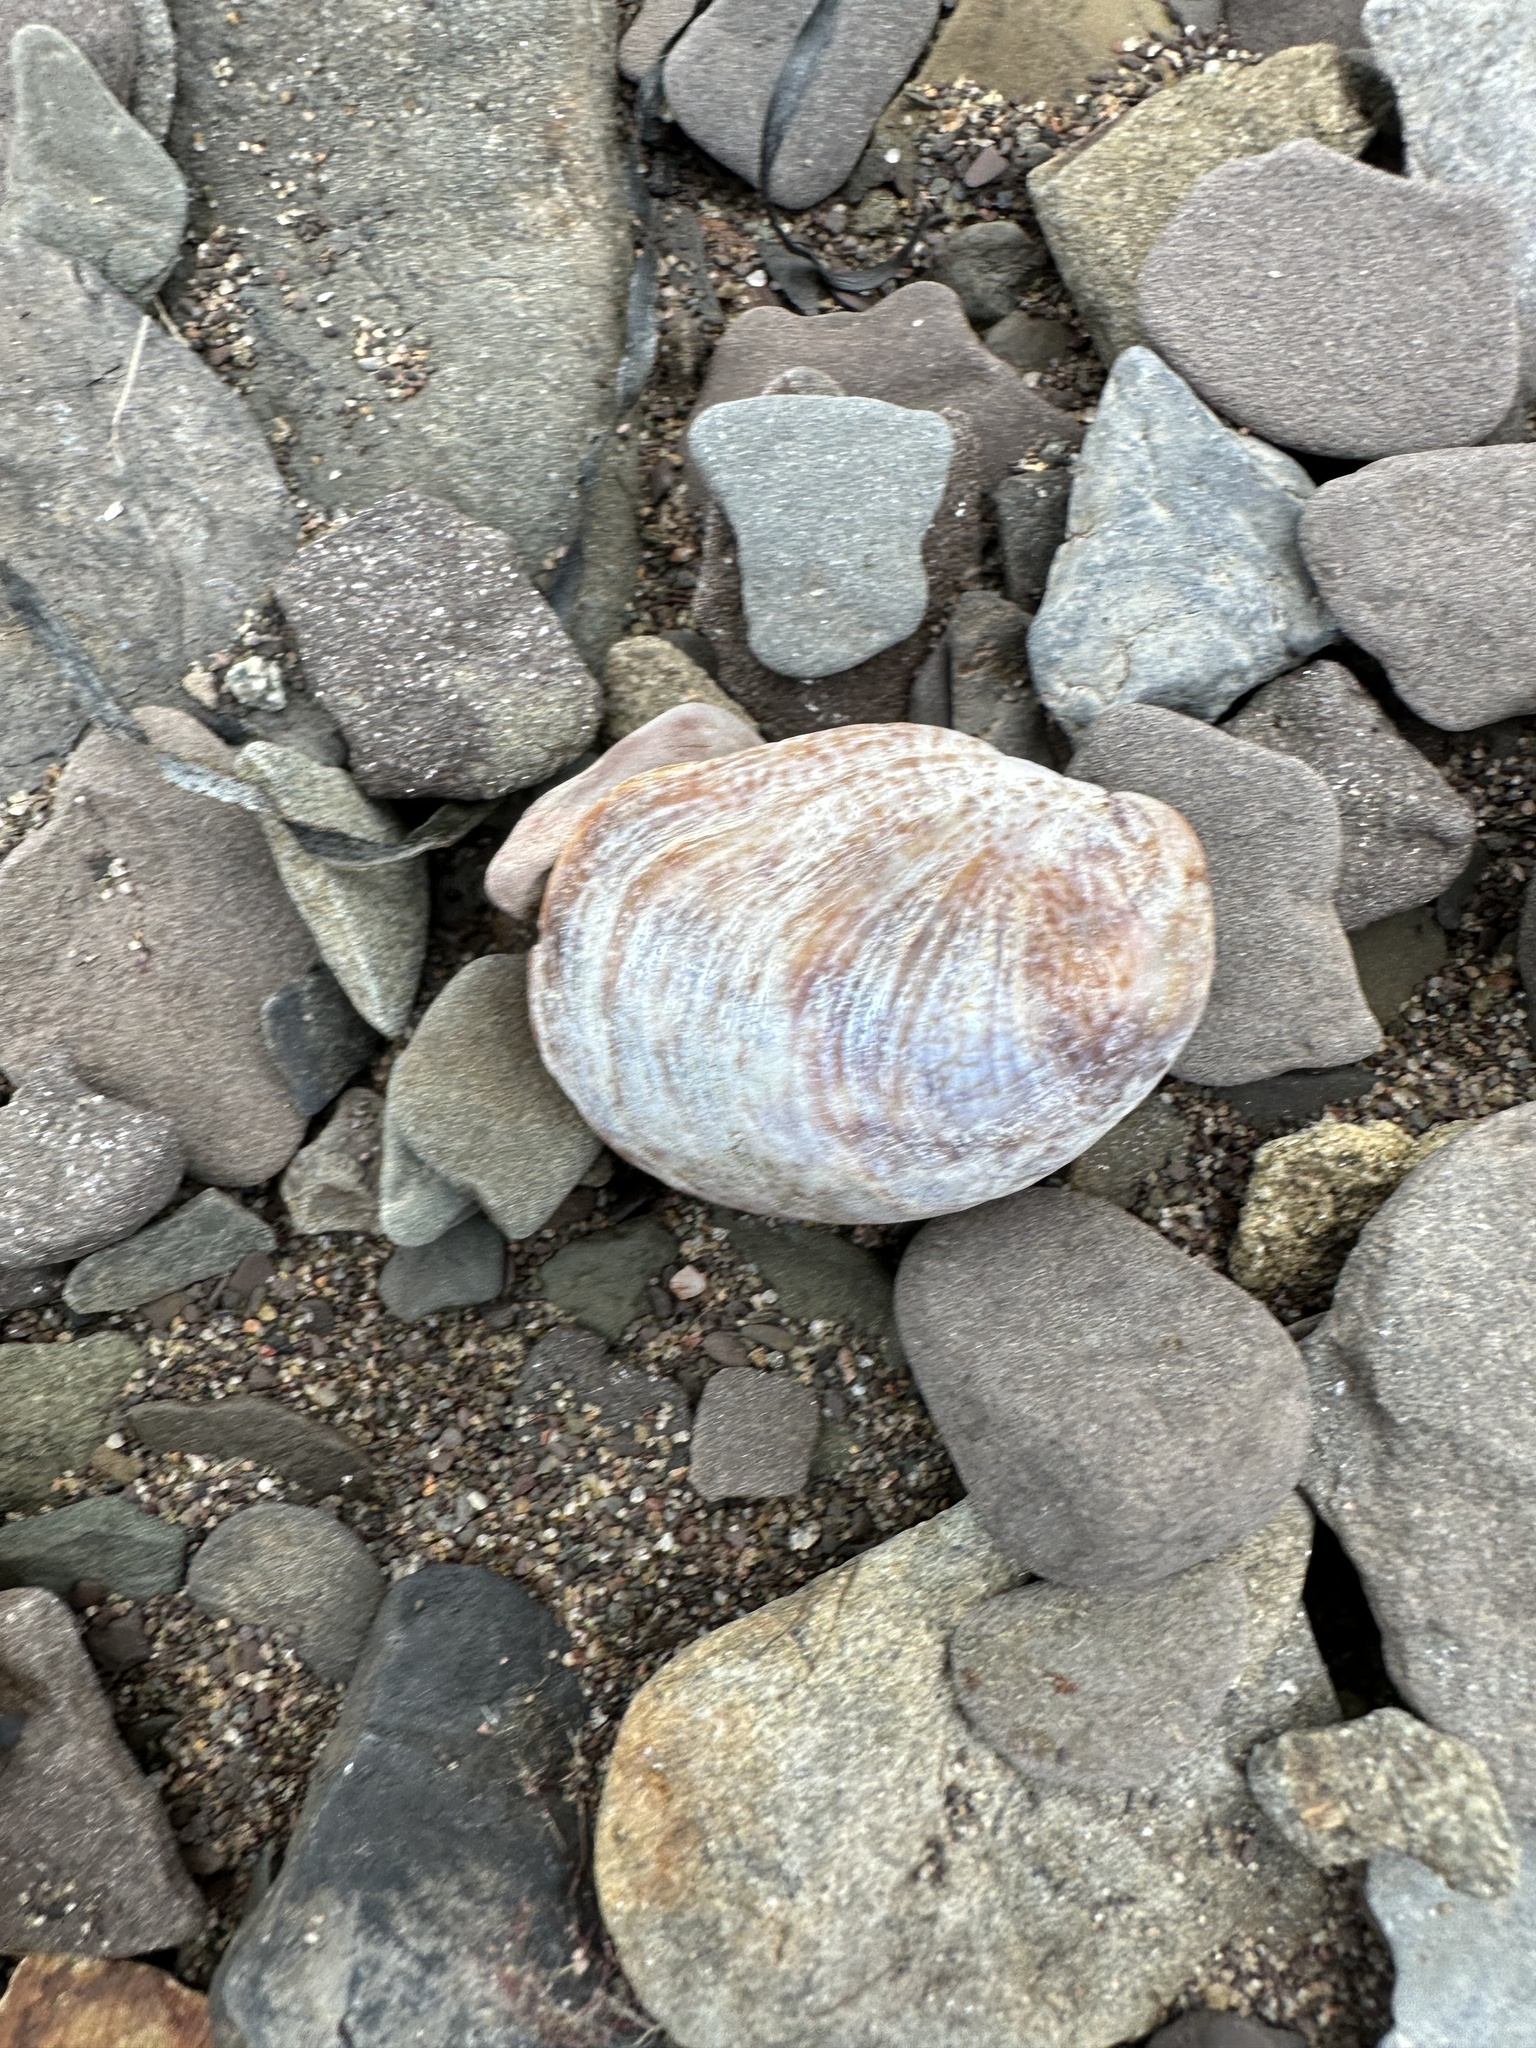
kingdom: Animalia
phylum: Mollusca
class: Gastropoda
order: Littorinimorpha
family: Calyptraeidae
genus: Crepidula
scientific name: Crepidula fornicata
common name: Slipper limpet
